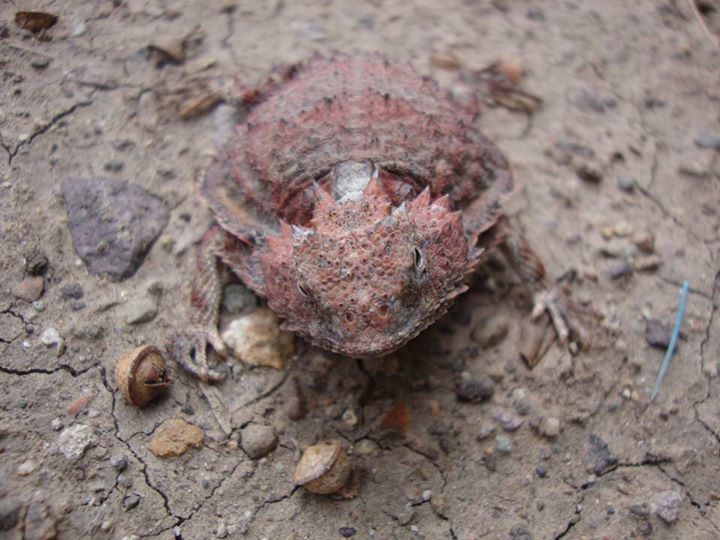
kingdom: Animalia
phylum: Chordata
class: Squamata
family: Phrynosomatidae
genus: Phrynosoma
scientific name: Phrynosoma braconnieri
